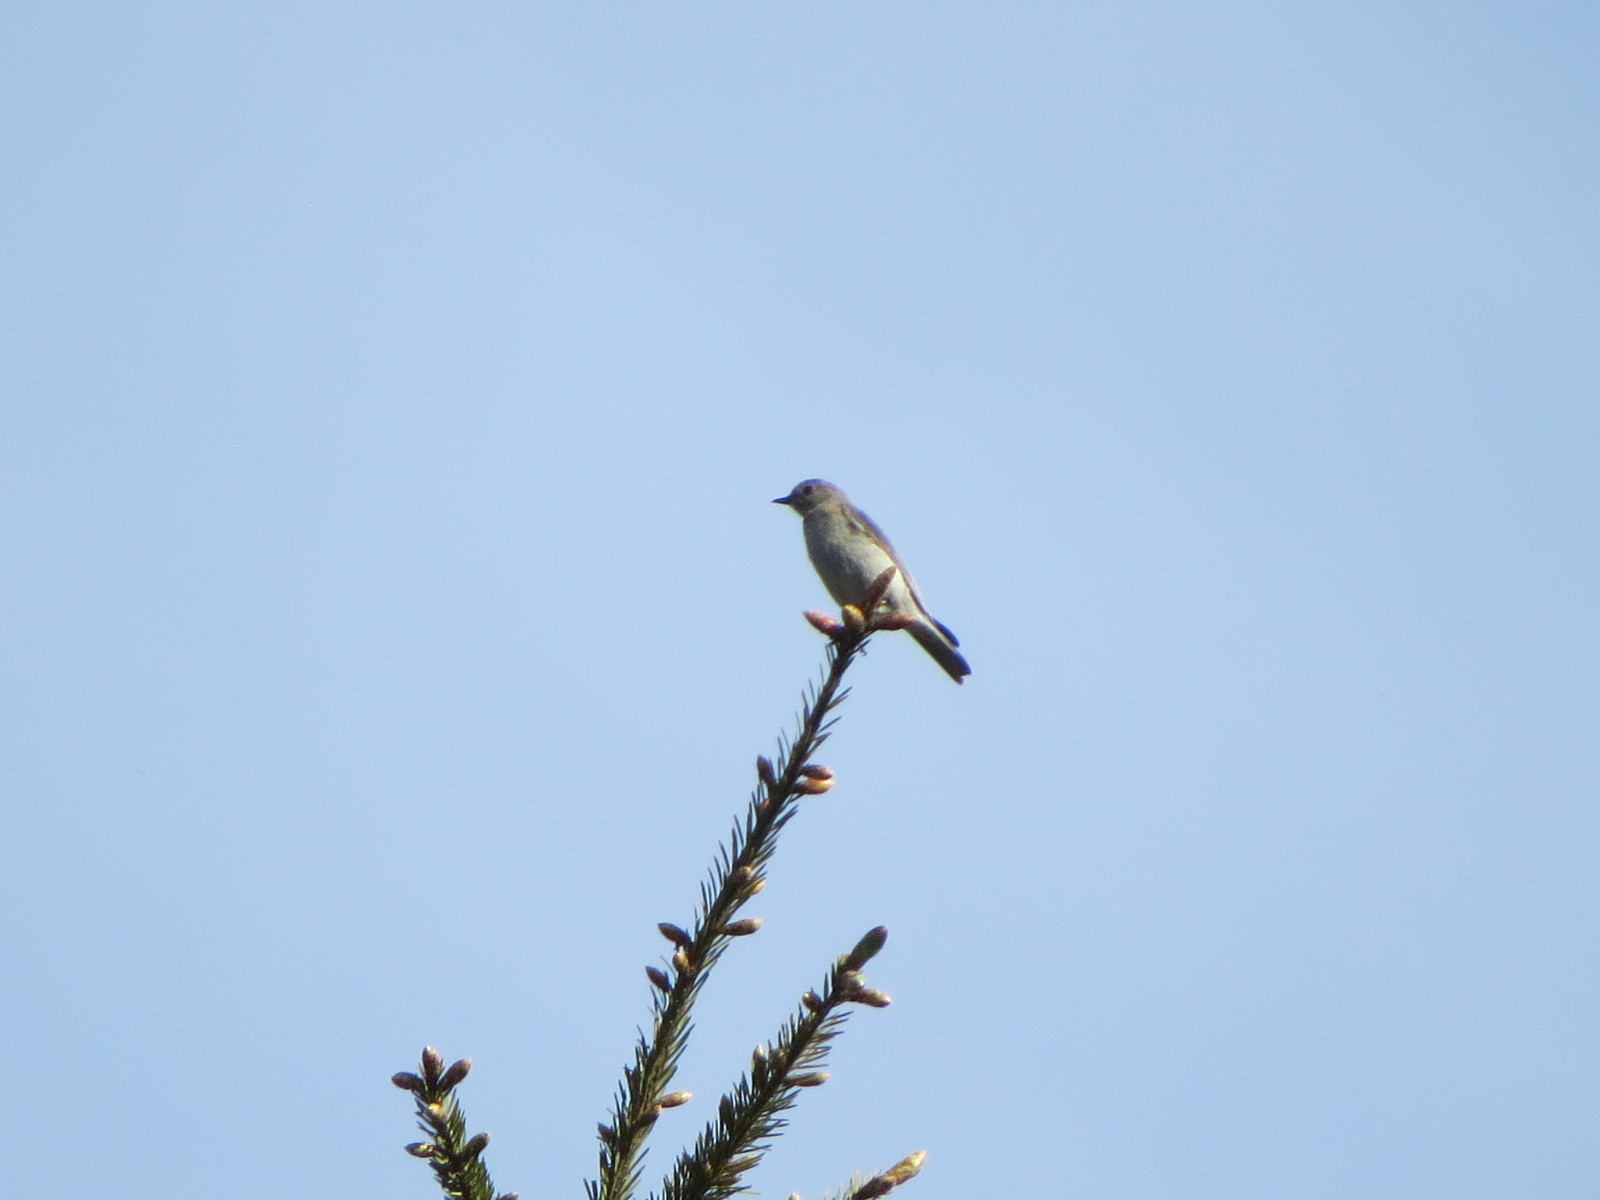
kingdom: Animalia
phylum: Chordata
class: Aves
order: Passeriformes
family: Turdidae
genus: Sialia
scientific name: Sialia mexicana
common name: Western bluebird
